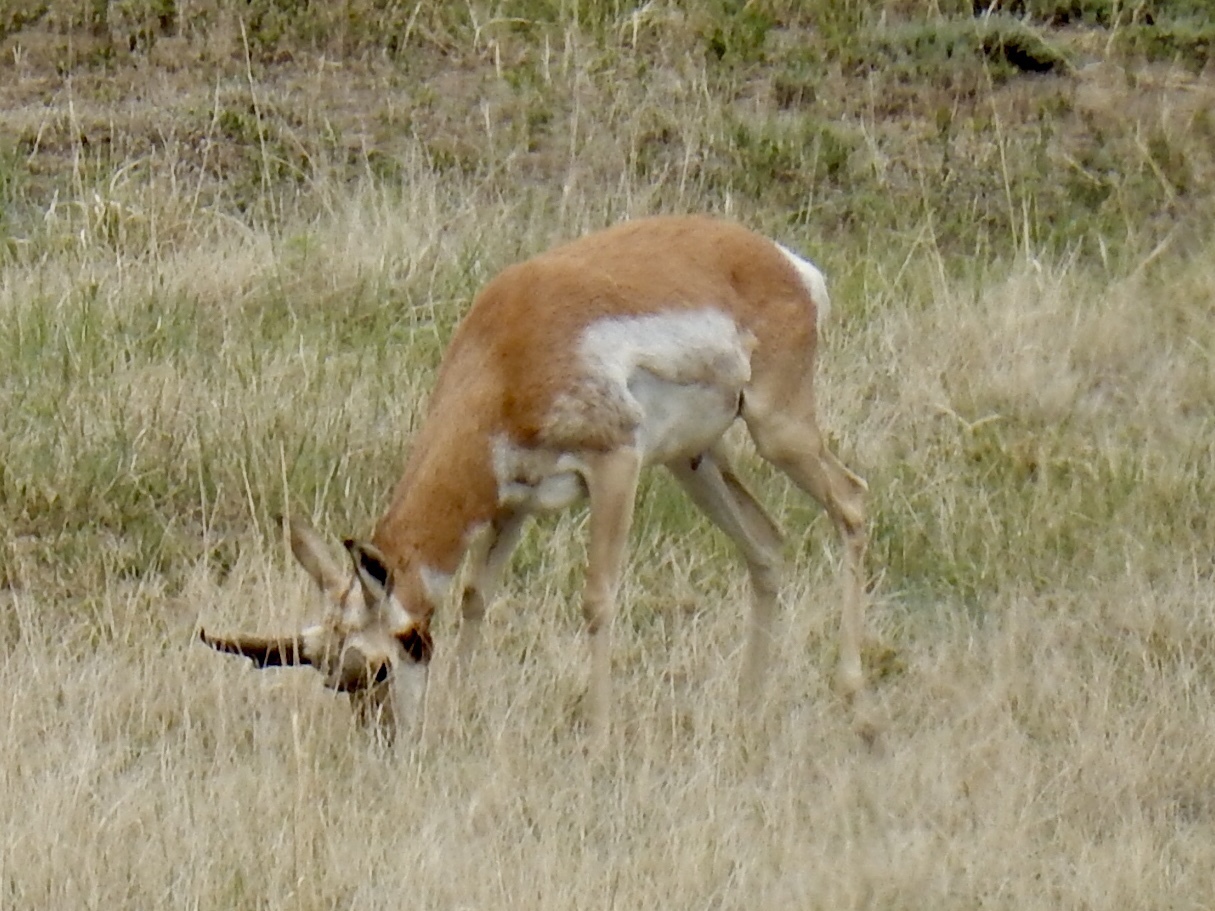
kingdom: Animalia
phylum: Chordata
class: Mammalia
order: Artiodactyla
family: Antilocapridae
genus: Antilocapra
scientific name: Antilocapra americana
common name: Pronghorn
